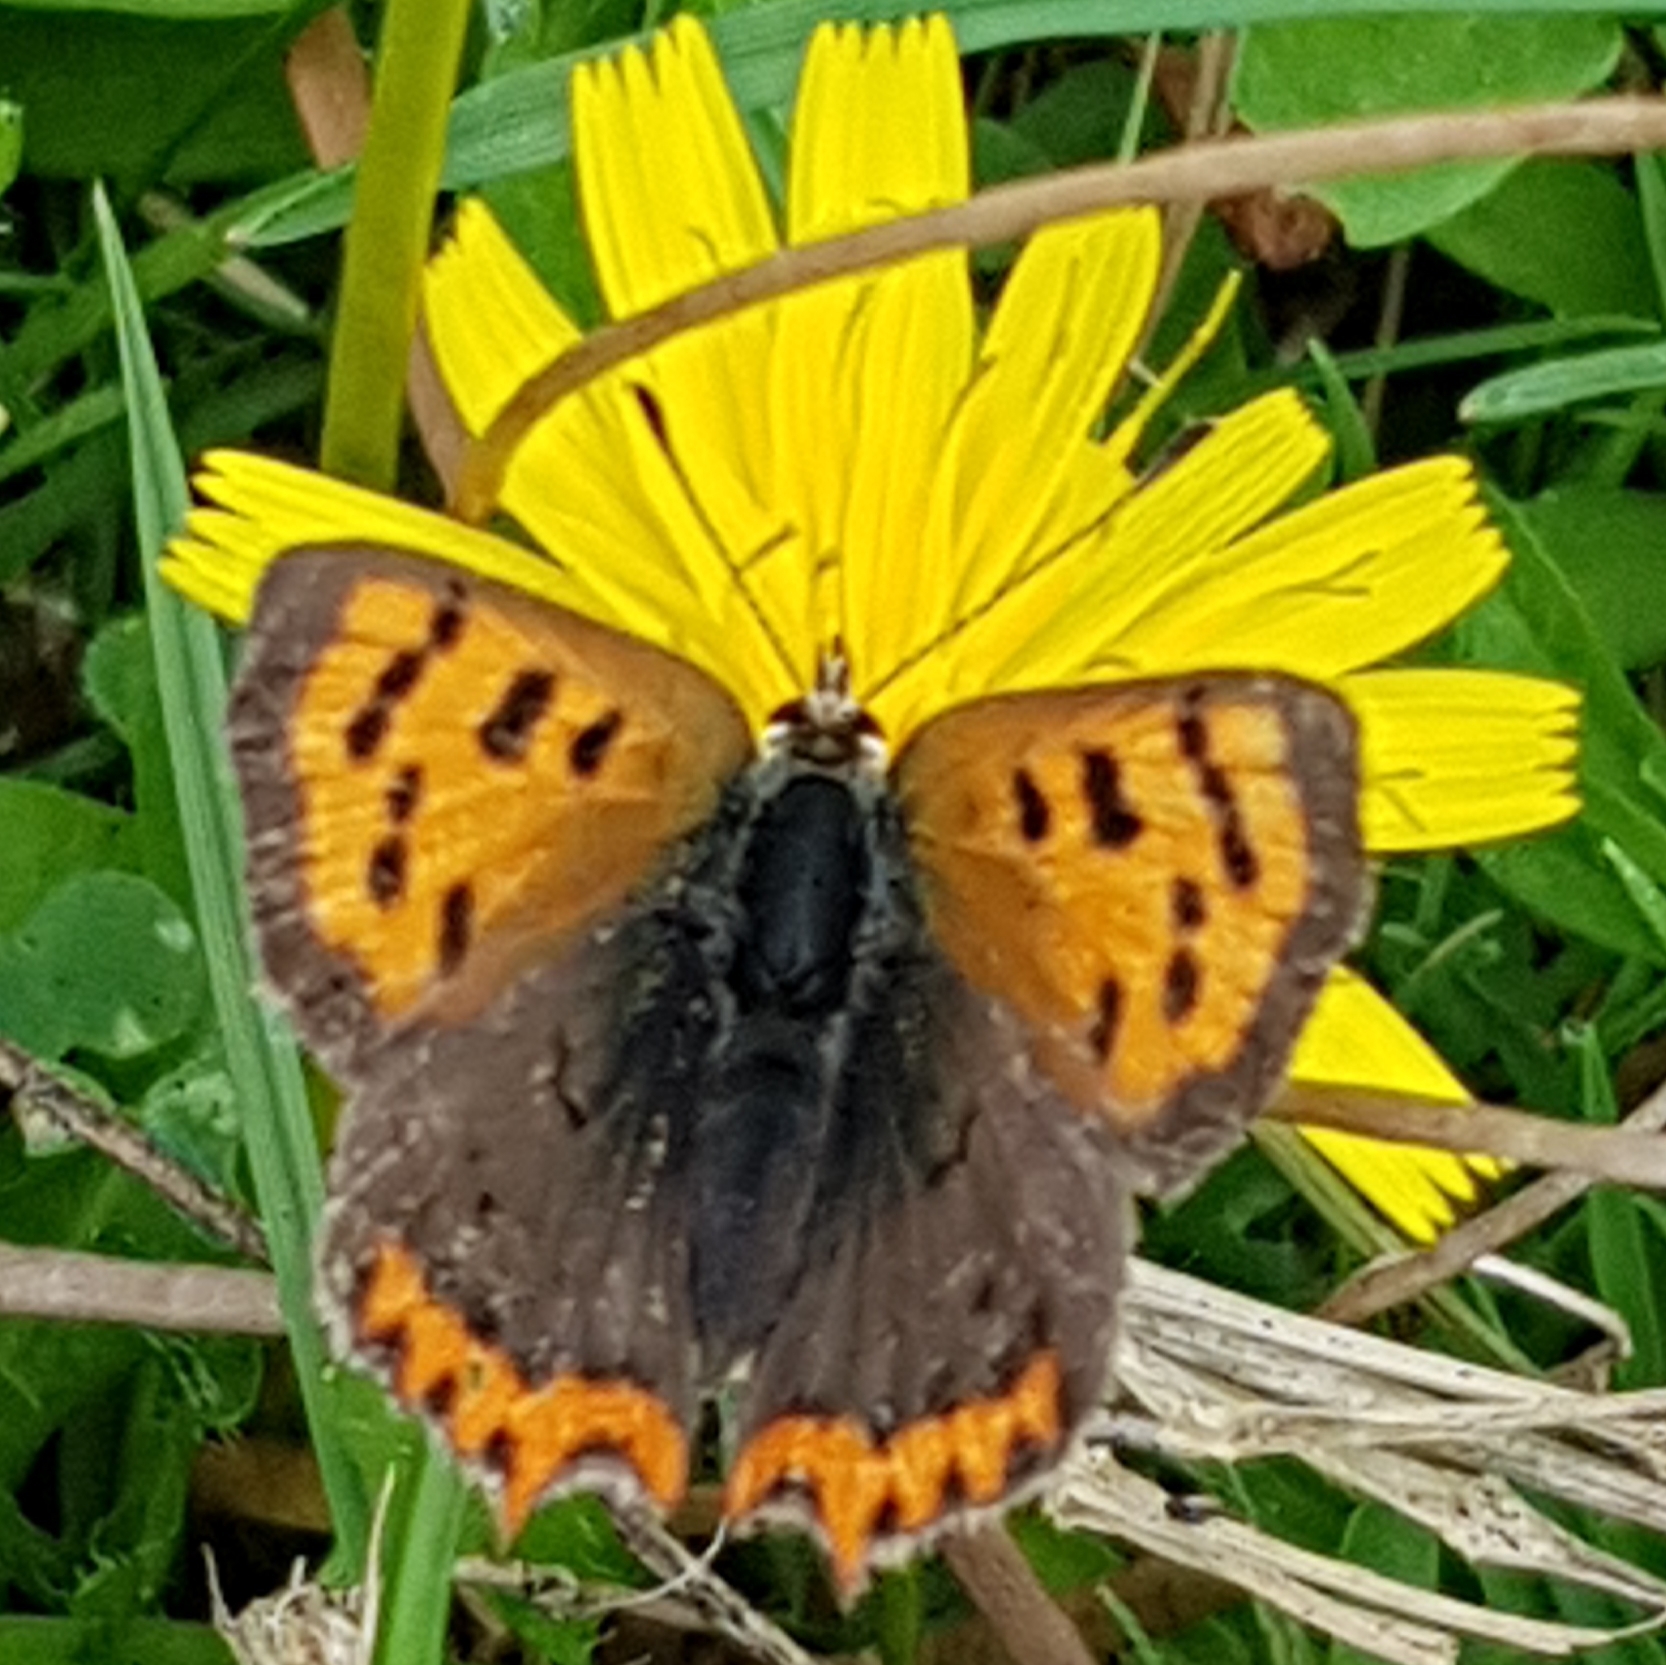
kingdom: Animalia
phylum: Arthropoda
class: Insecta
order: Lepidoptera
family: Lycaenidae
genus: Lycaena
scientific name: Lycaena phlaeas
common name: Small copper
